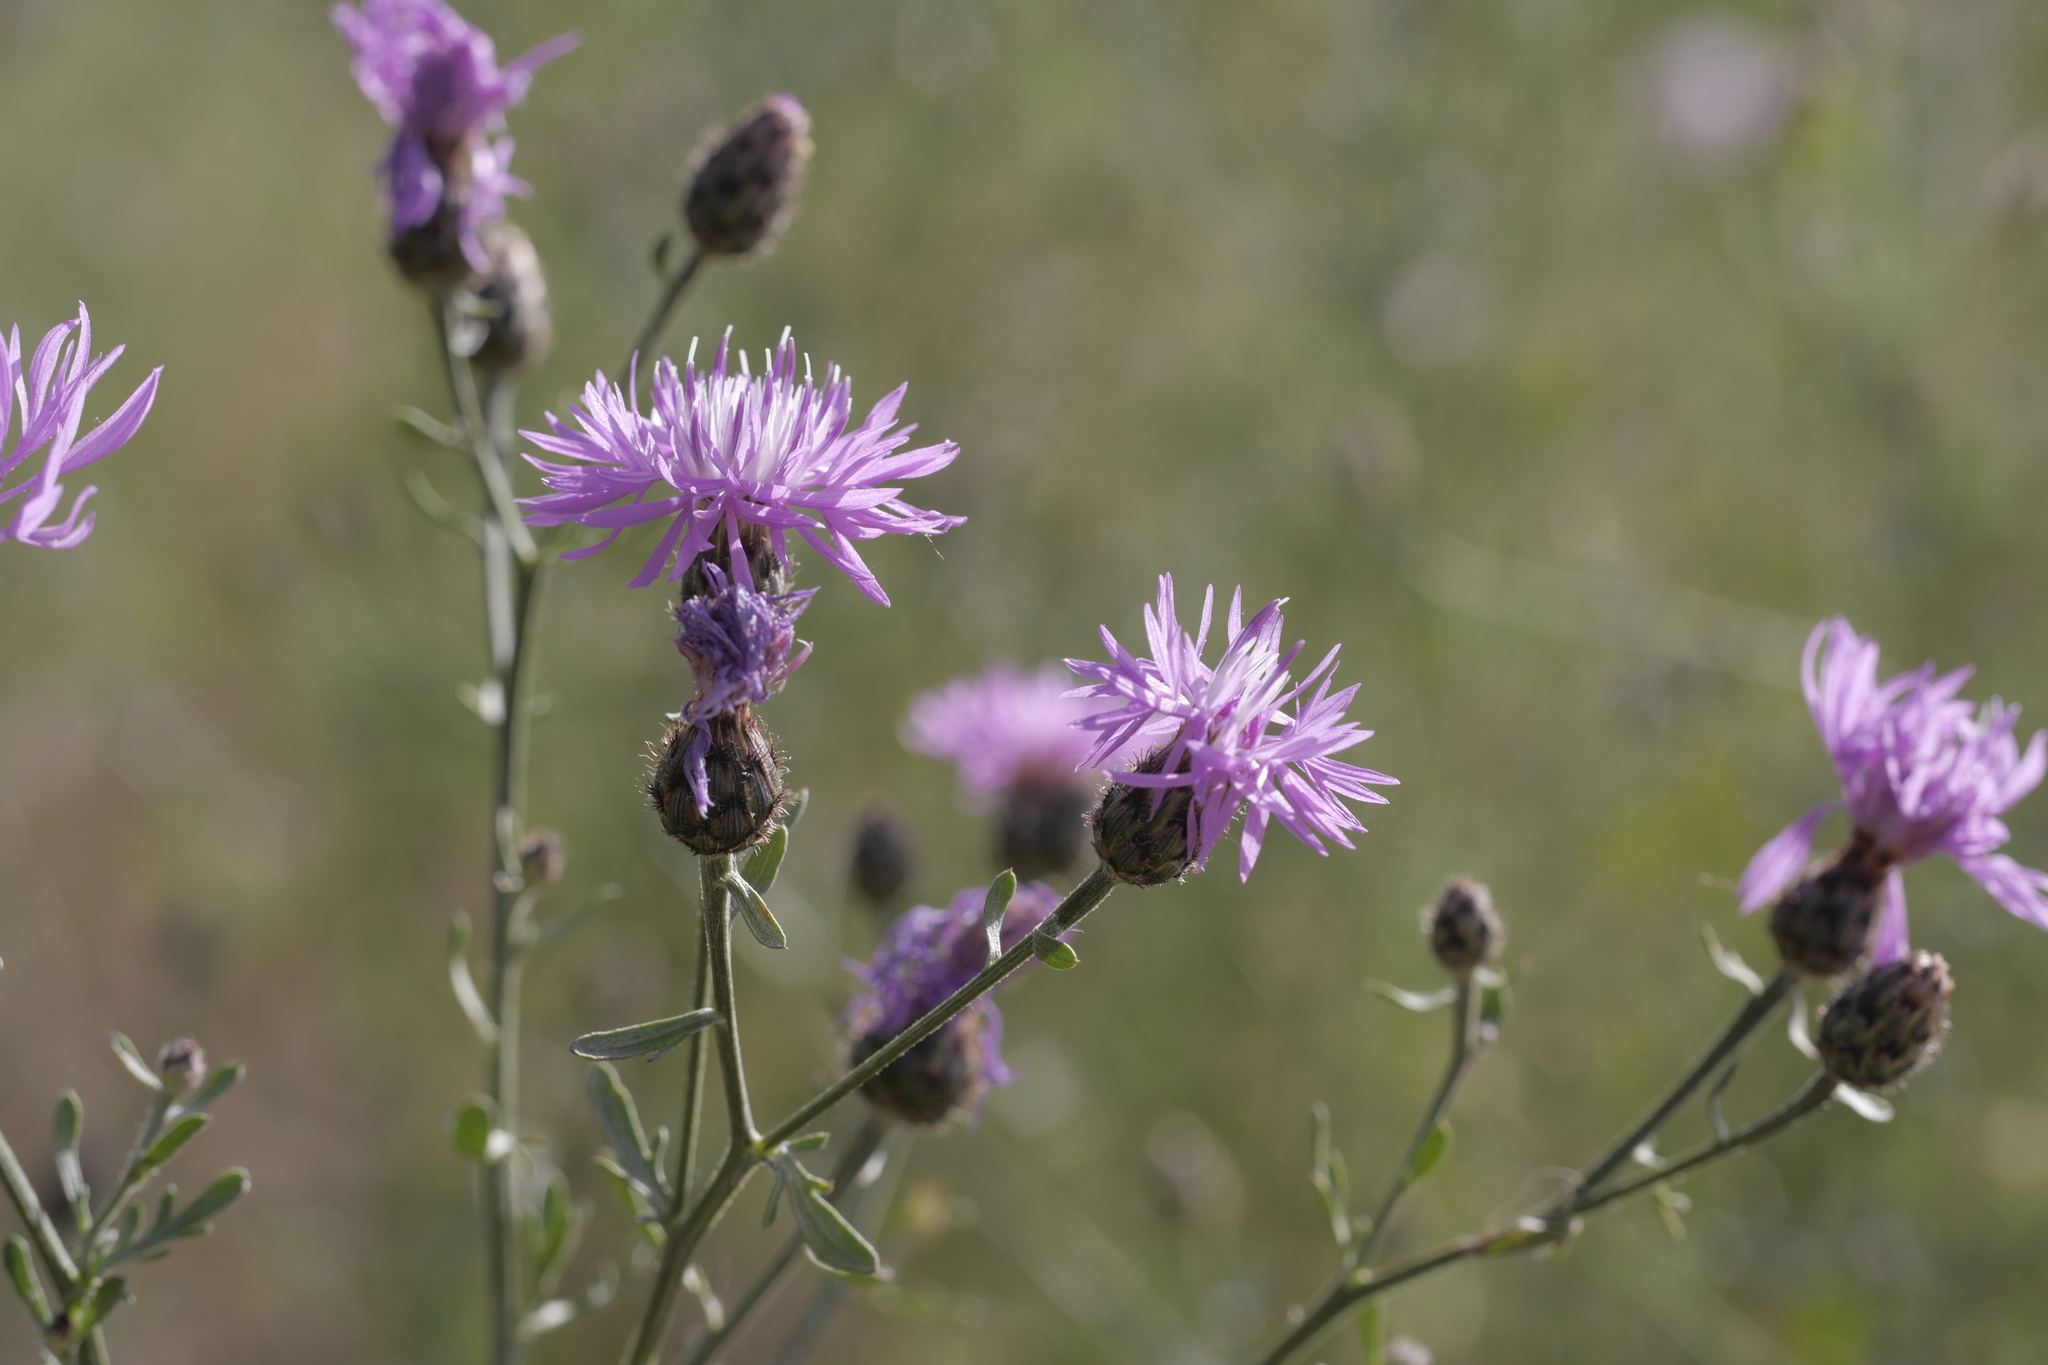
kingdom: Plantae
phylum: Tracheophyta
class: Magnoliopsida
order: Asterales
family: Asteraceae
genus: Centaurea
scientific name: Centaurea stoebe
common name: Spotted knapweed
